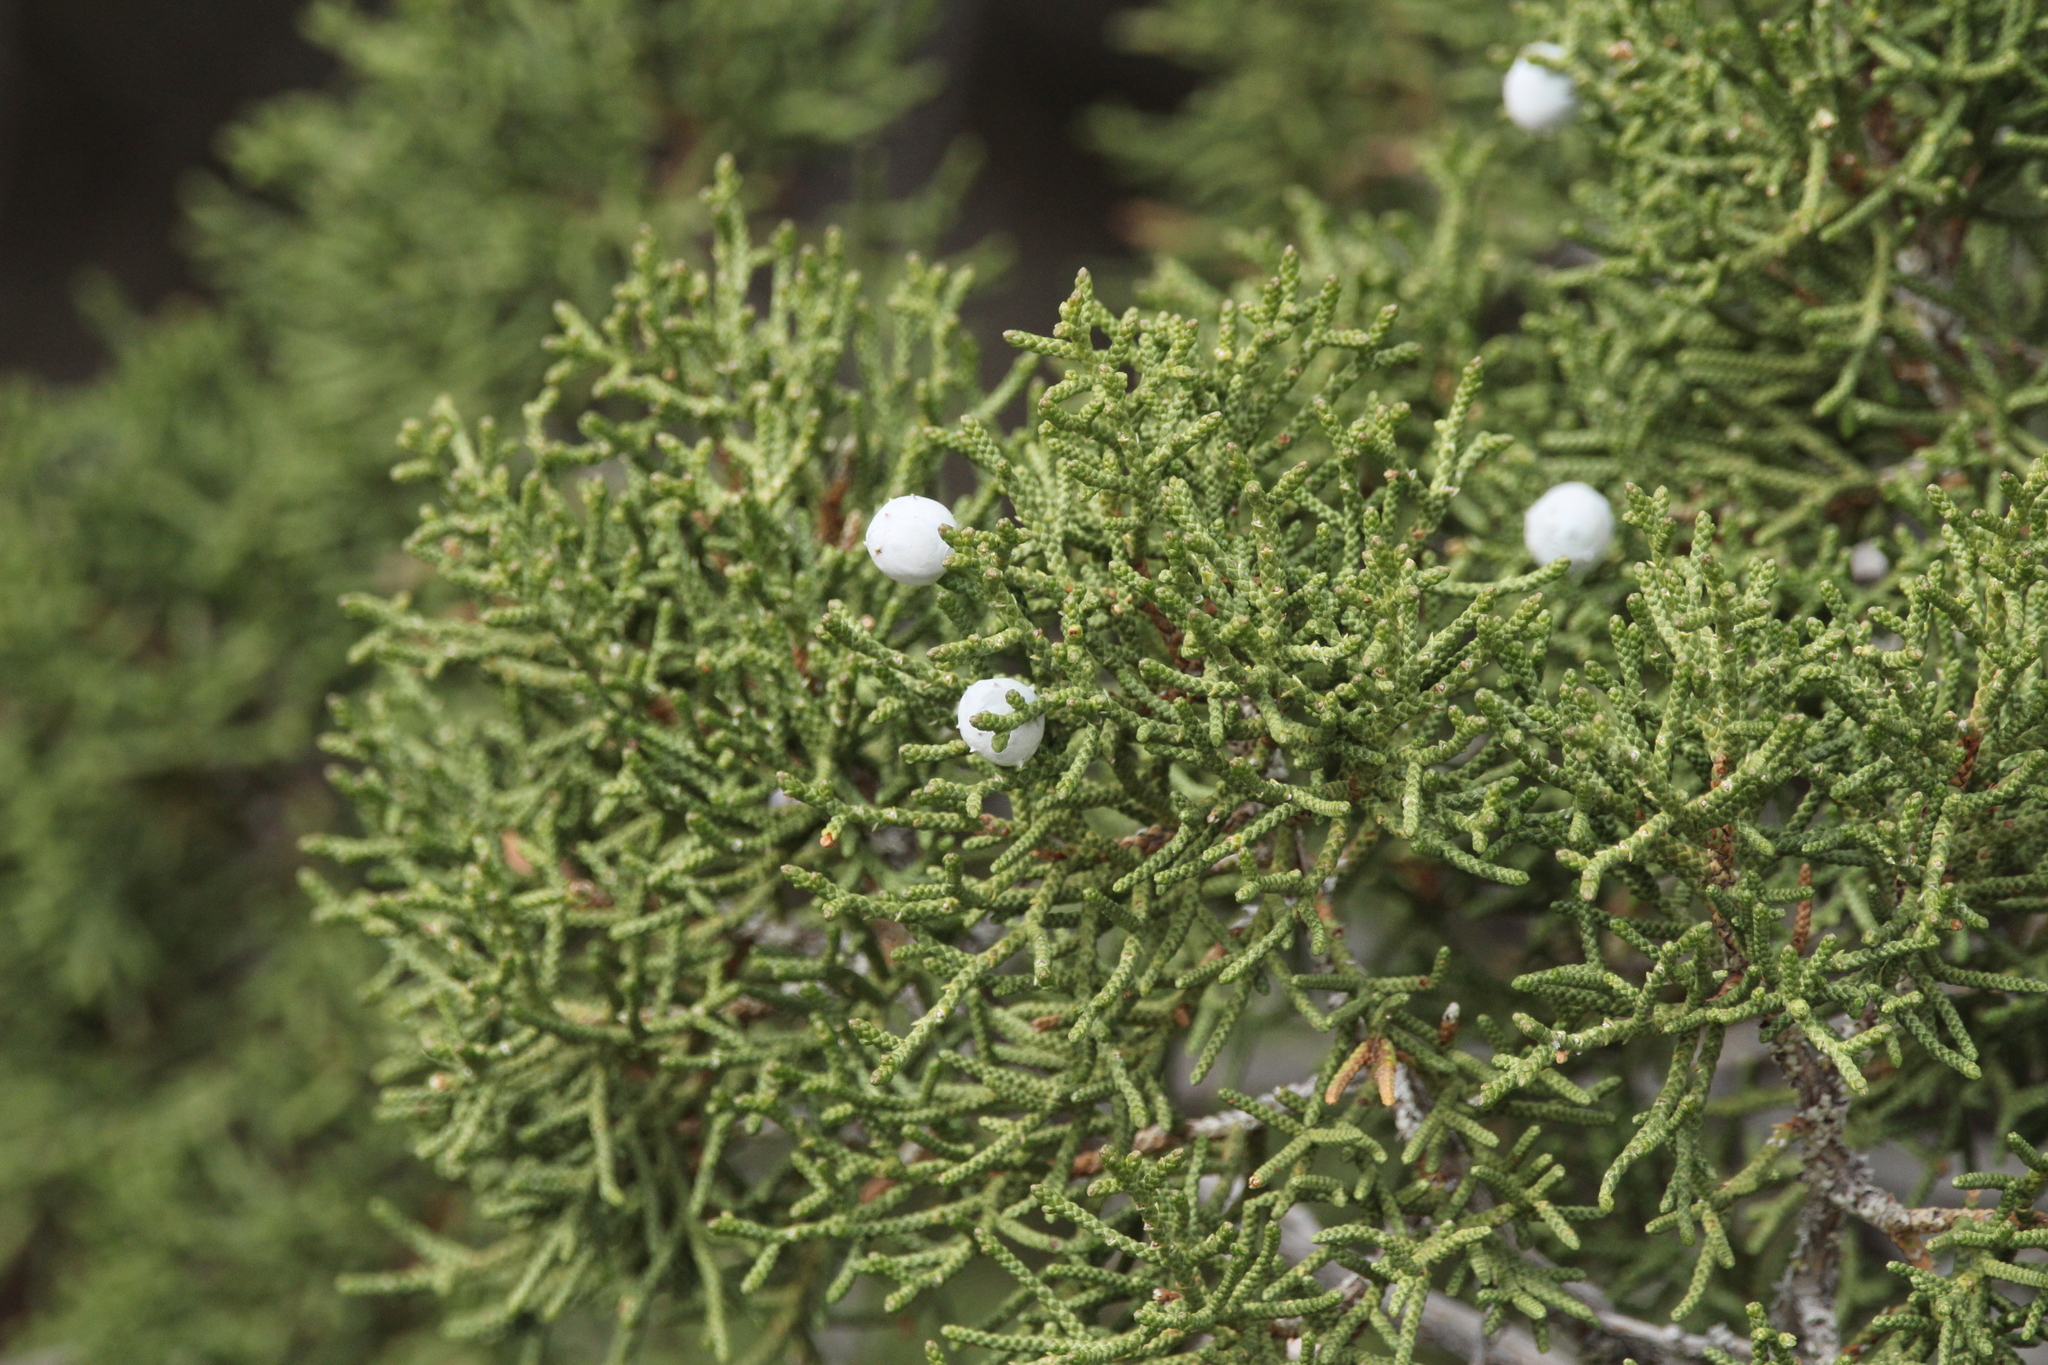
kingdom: Plantae
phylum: Tracheophyta
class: Pinopsida
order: Pinales
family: Cupressaceae
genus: Juniperus
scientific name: Juniperus californica
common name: California juniper
